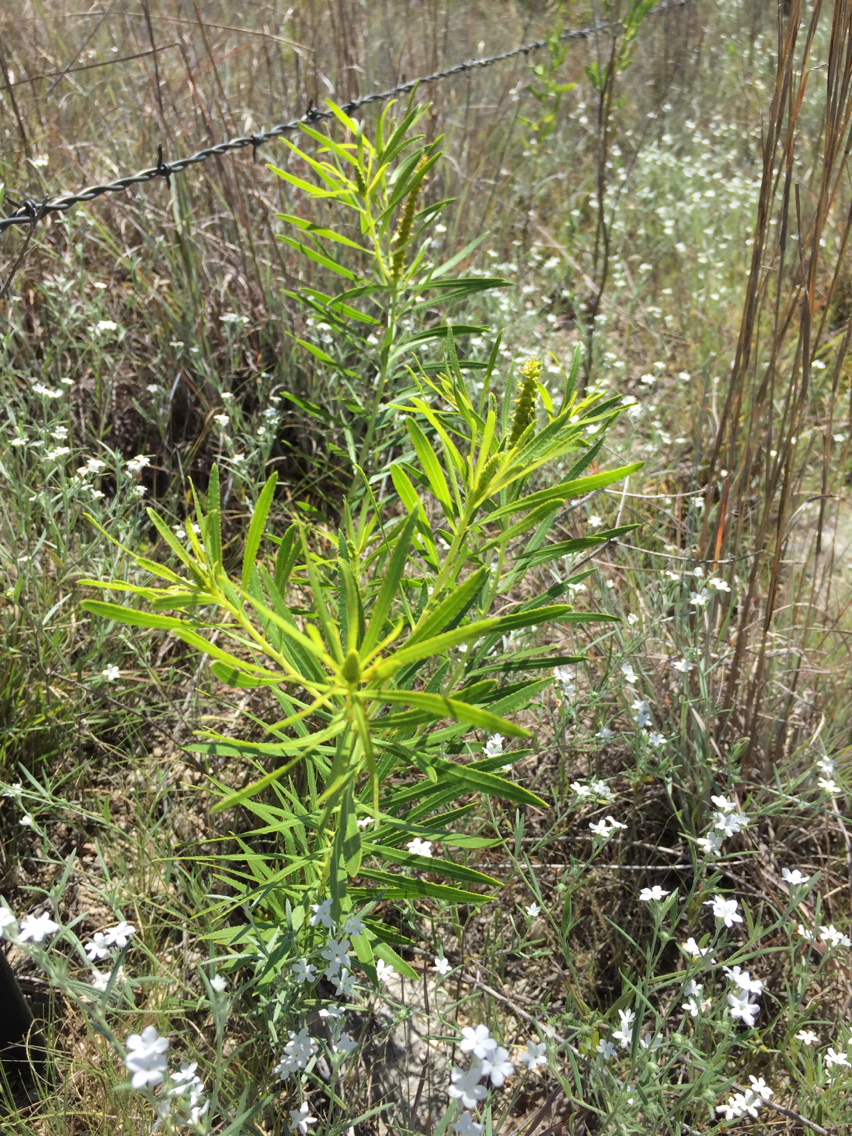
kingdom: Plantae
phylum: Tracheophyta
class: Magnoliopsida
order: Malpighiales
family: Euphorbiaceae
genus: Stillingia
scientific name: Stillingia texana
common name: Texas stillingia
